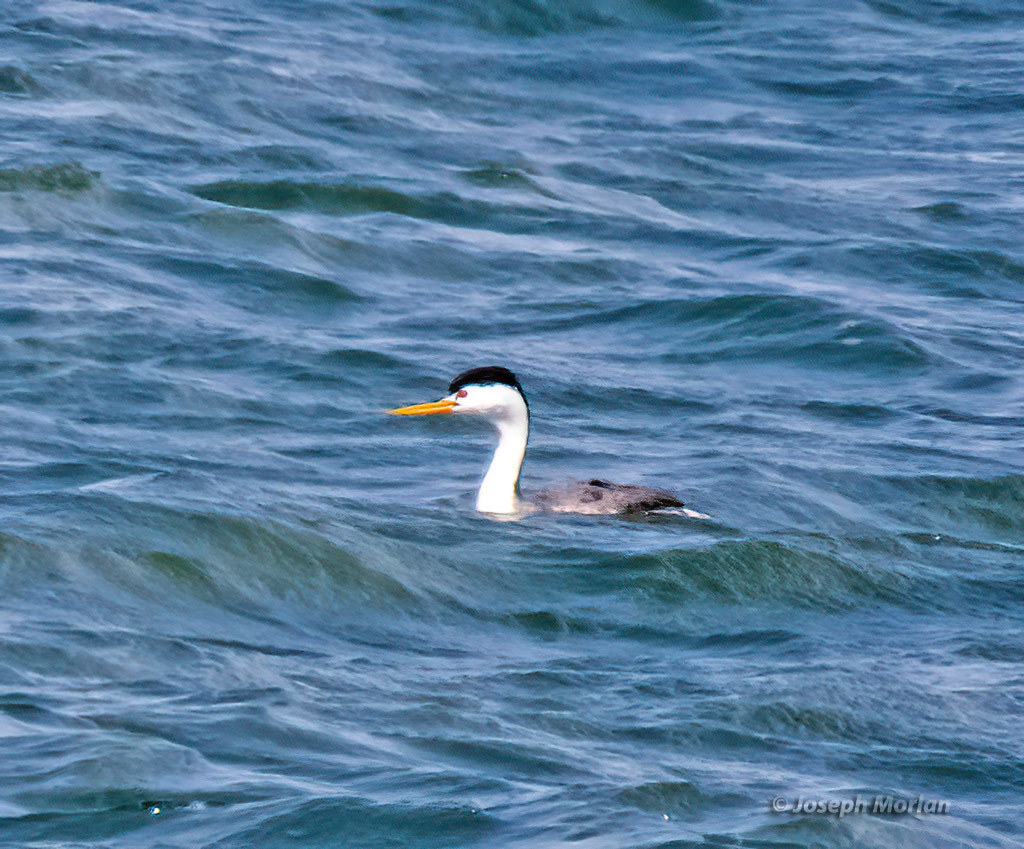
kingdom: Animalia
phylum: Chordata
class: Aves
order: Podicipediformes
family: Podicipedidae
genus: Aechmophorus
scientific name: Aechmophorus clarkii
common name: Clark's grebe
